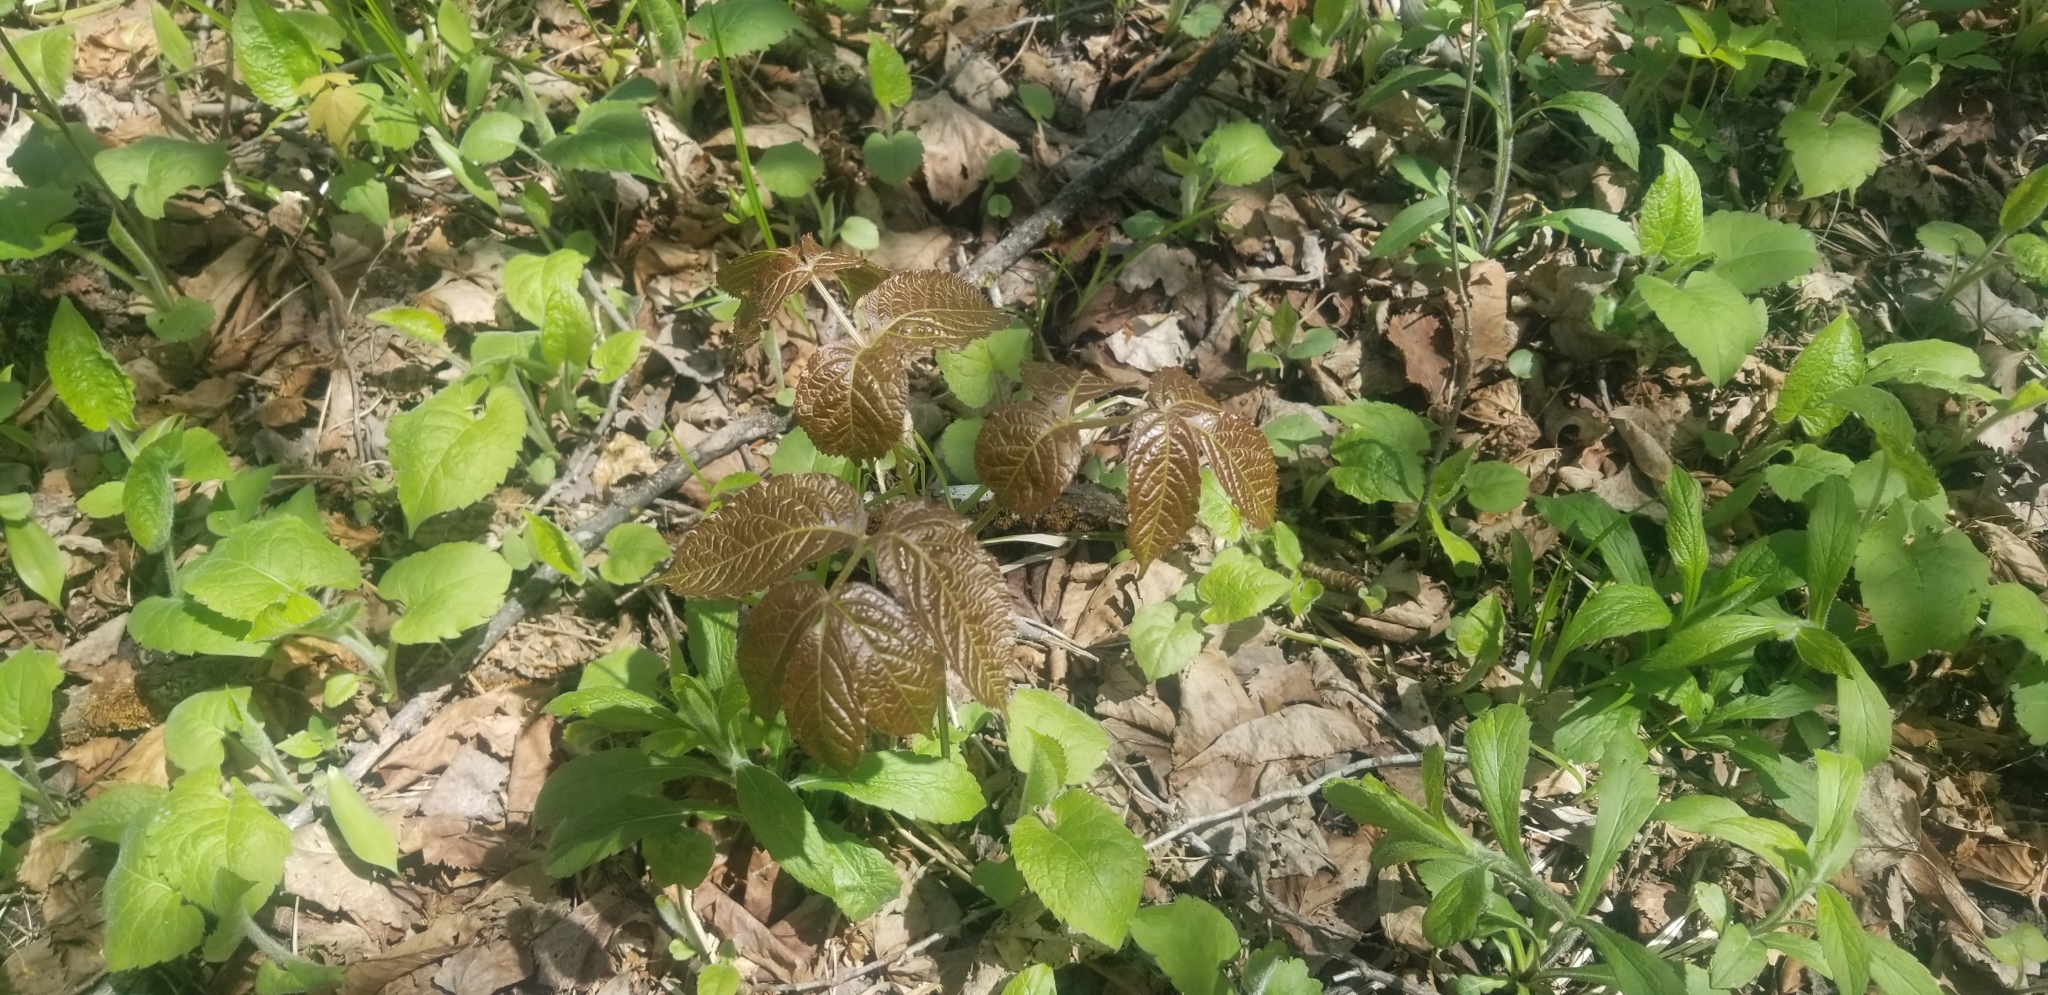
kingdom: Plantae
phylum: Tracheophyta
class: Magnoliopsida
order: Apiales
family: Araliaceae
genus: Aralia
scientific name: Aralia nudicaulis
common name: Wild sarsaparilla
